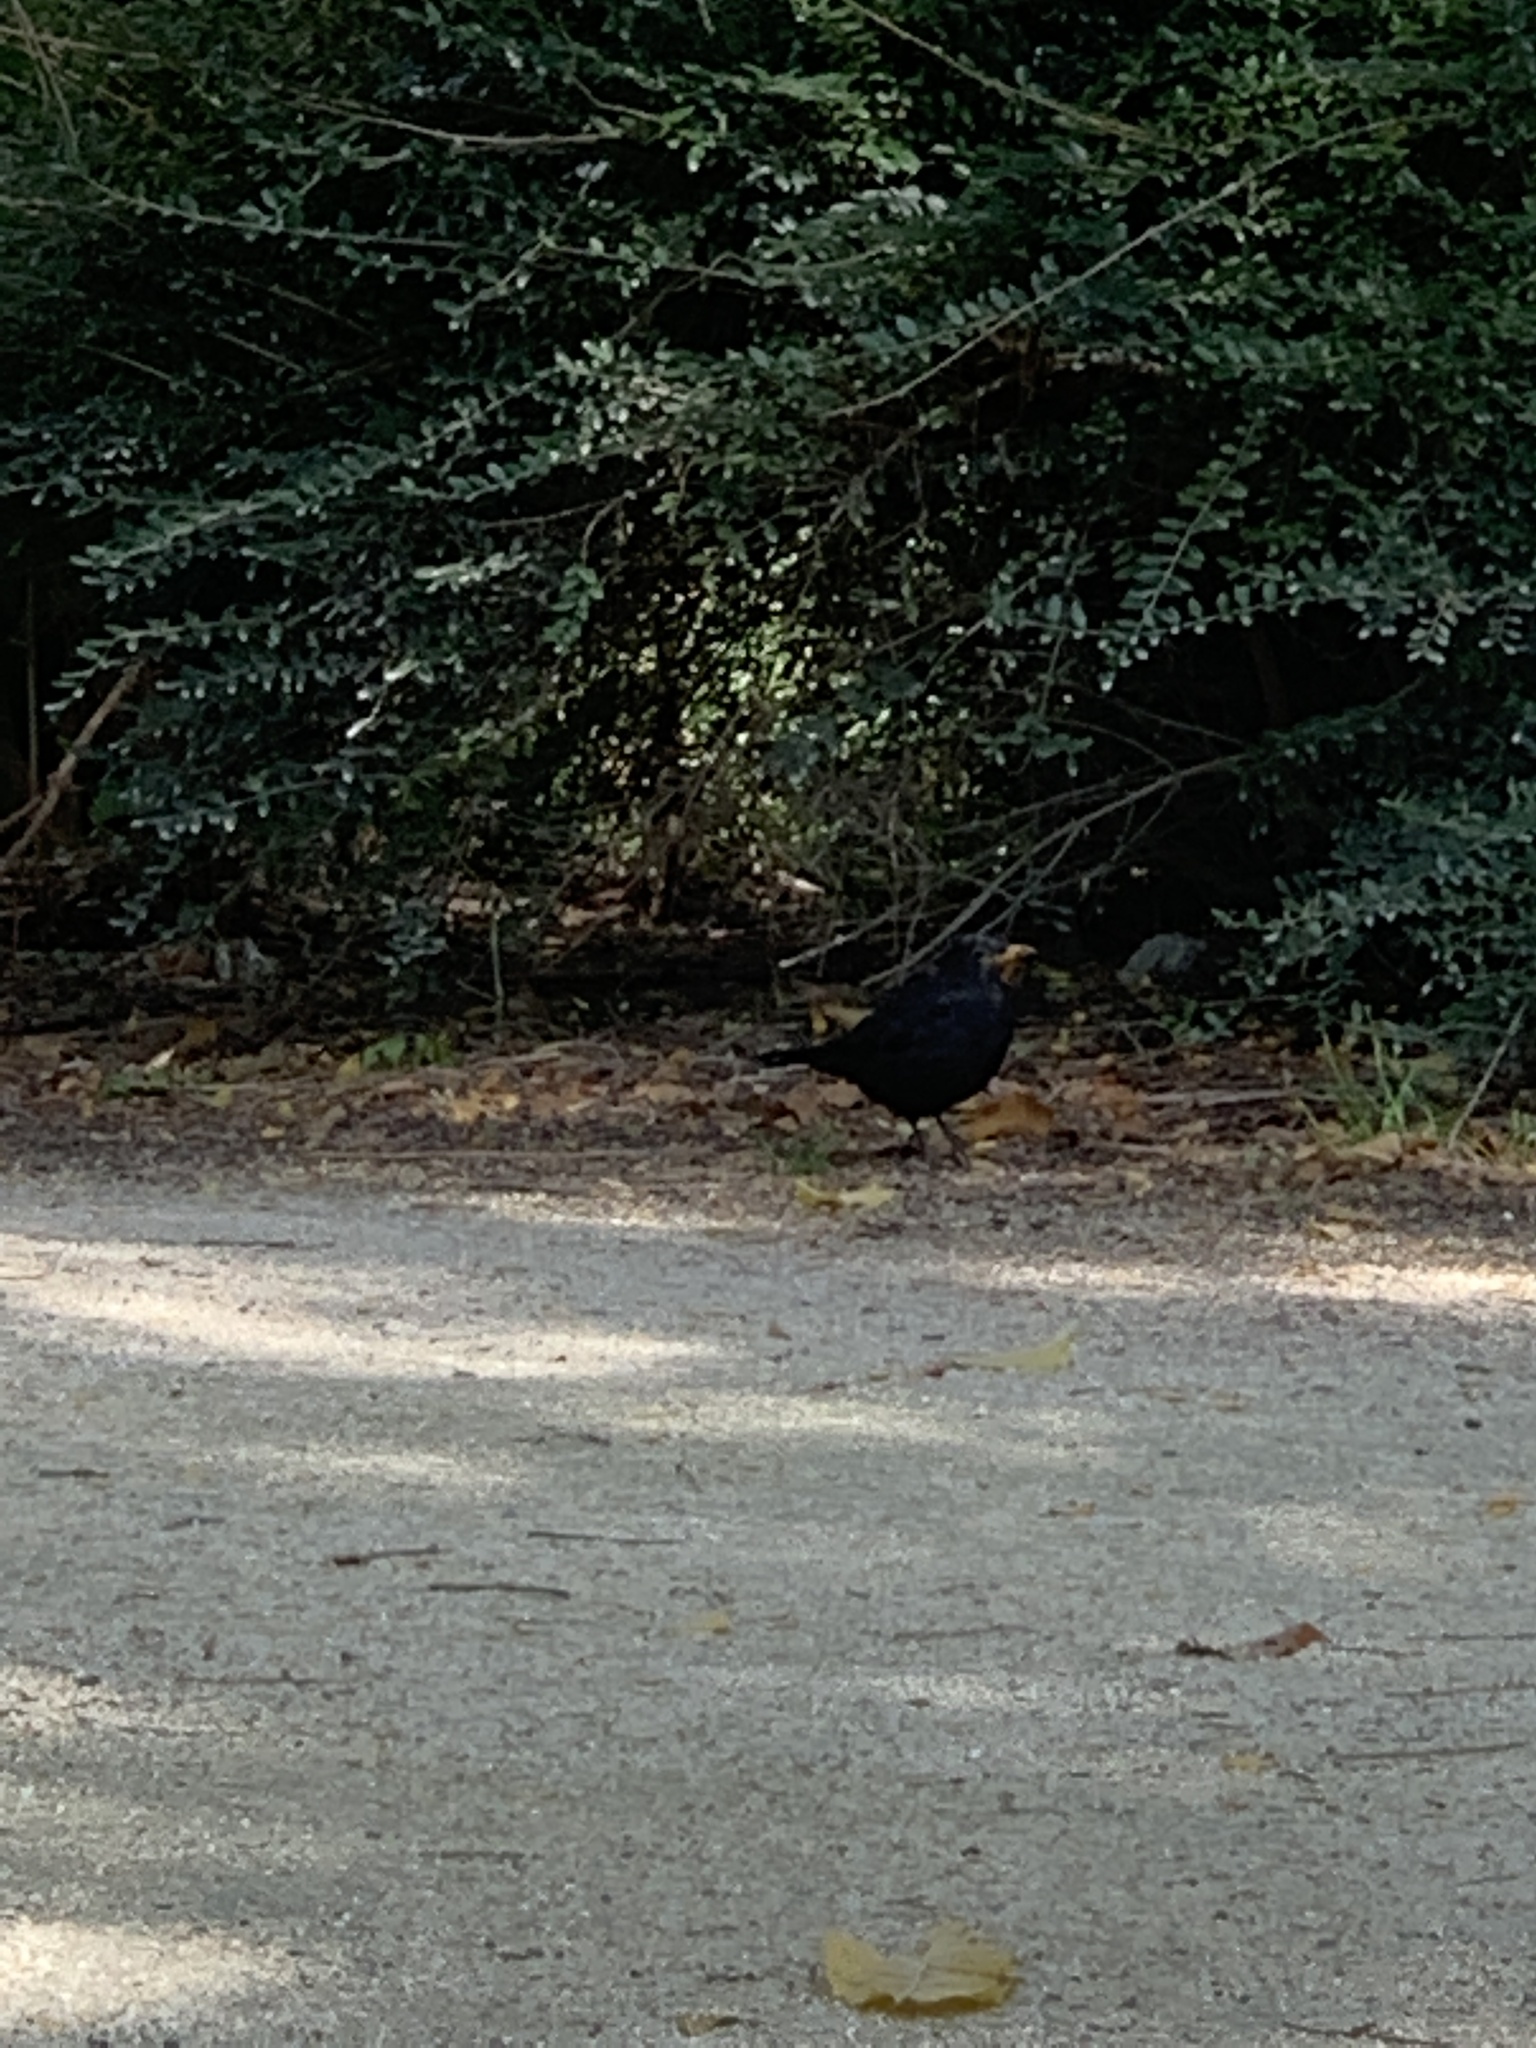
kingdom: Animalia
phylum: Chordata
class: Aves
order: Passeriformes
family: Turdidae
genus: Turdus
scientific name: Turdus merula
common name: Common blackbird
